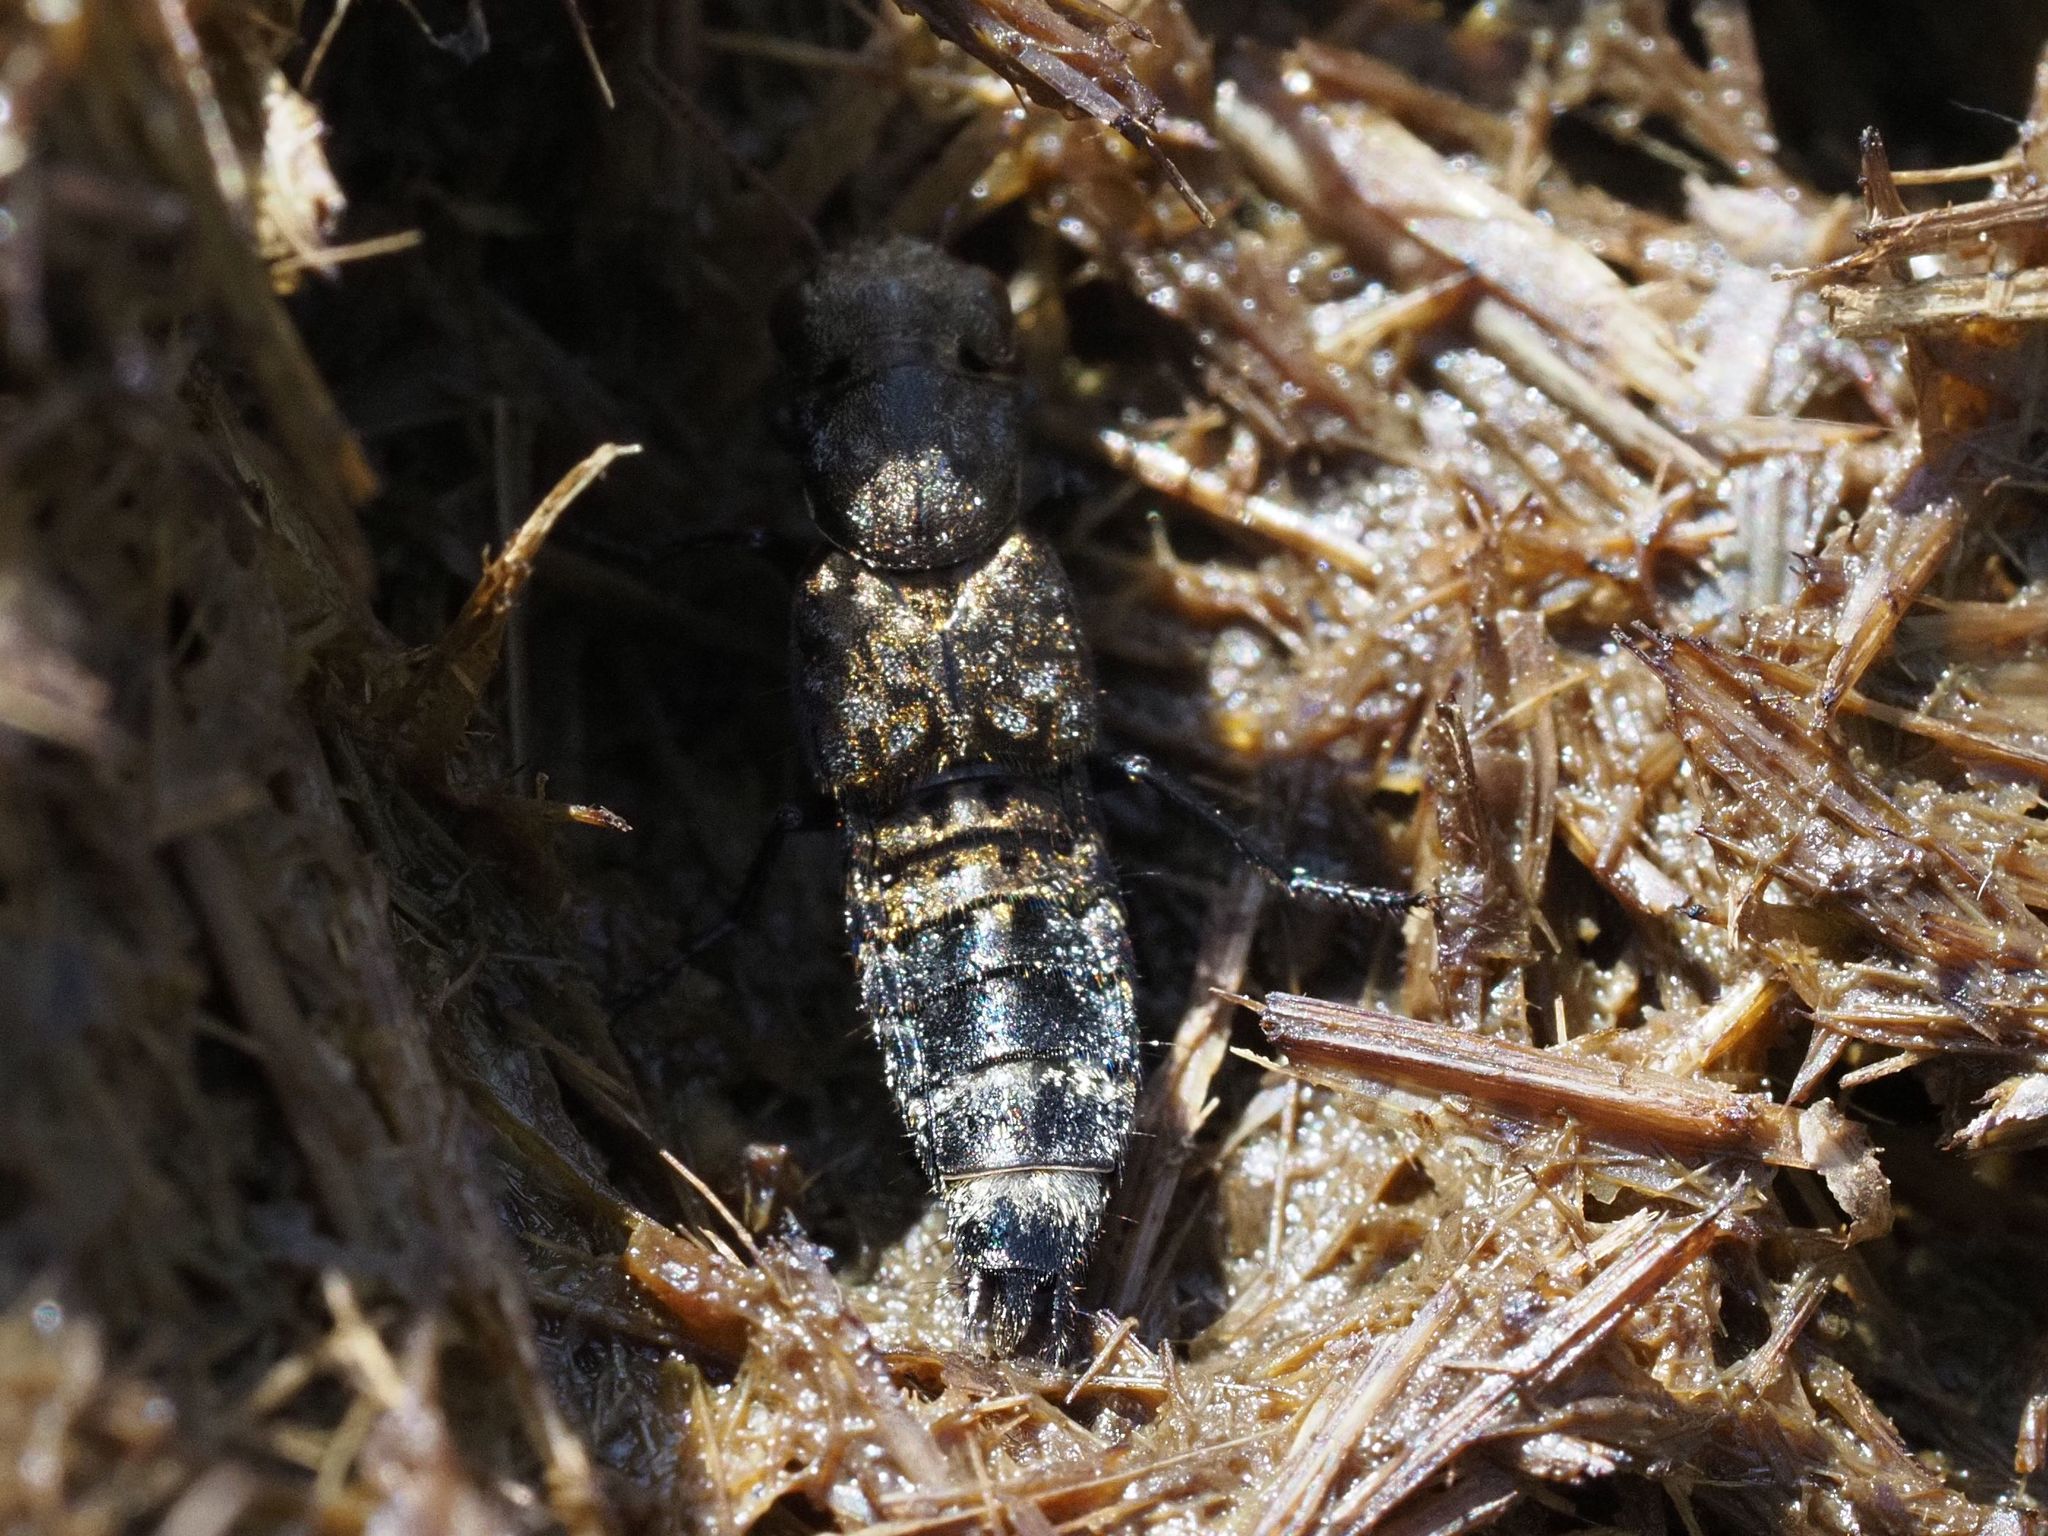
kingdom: Animalia
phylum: Arthropoda
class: Insecta
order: Coleoptera
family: Staphylinidae
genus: Ontholestes
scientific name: Ontholestes murinus
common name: Staph beetle
